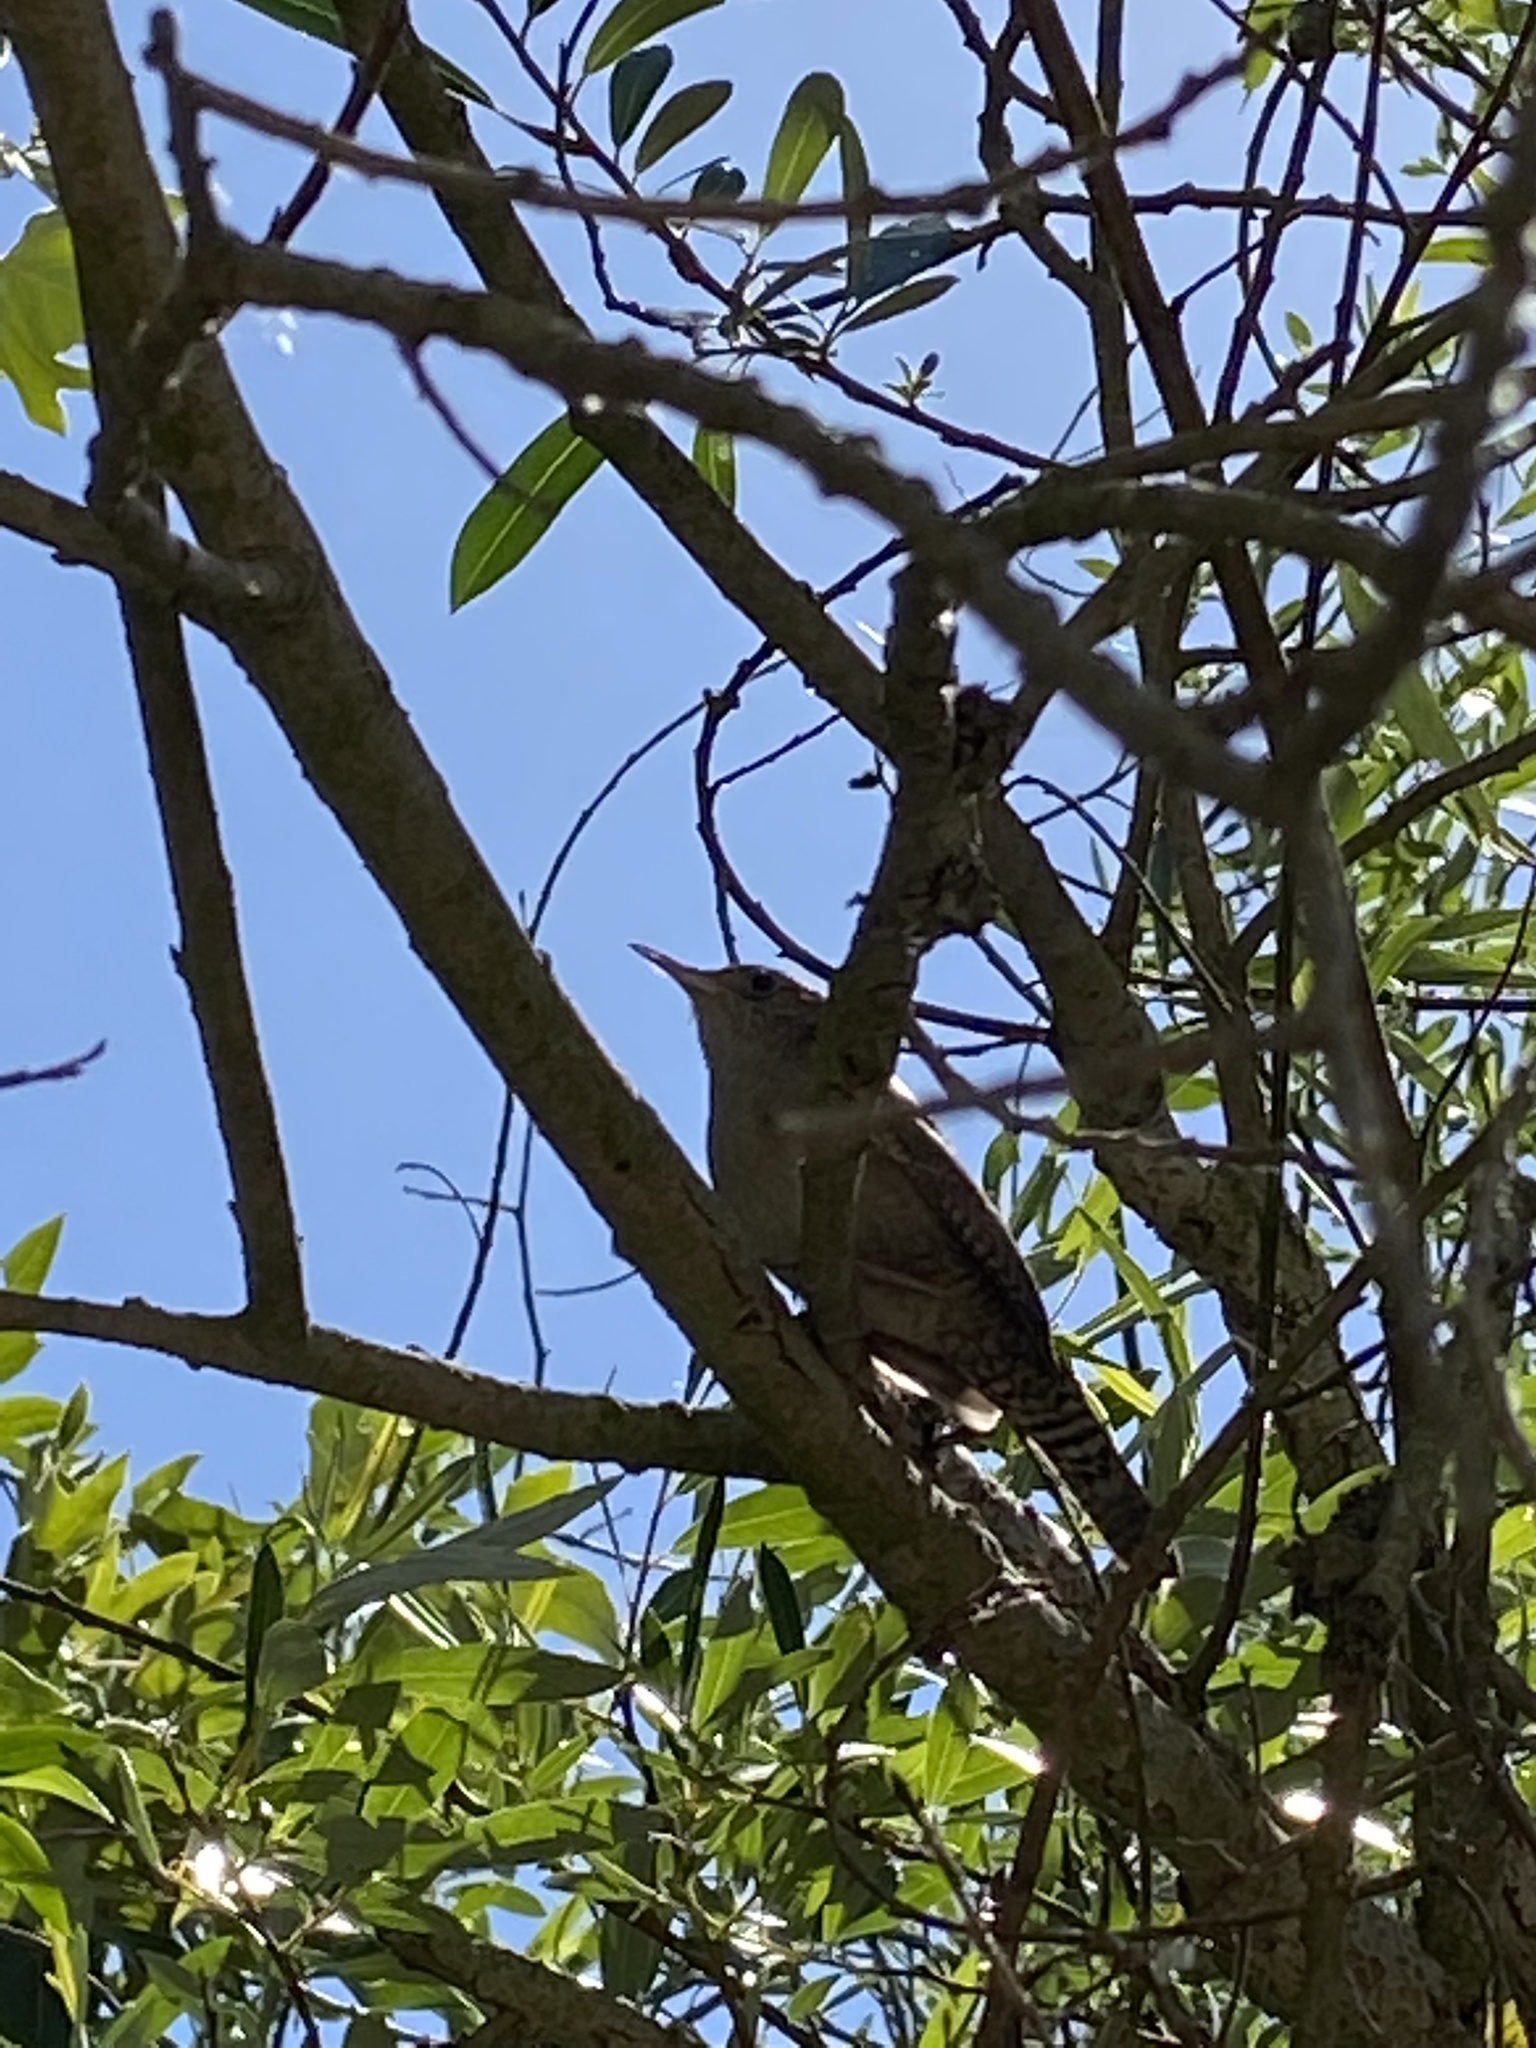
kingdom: Animalia
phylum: Chordata
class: Aves
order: Passeriformes
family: Troglodytidae
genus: Troglodytes
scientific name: Troglodytes aedon
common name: House wren
